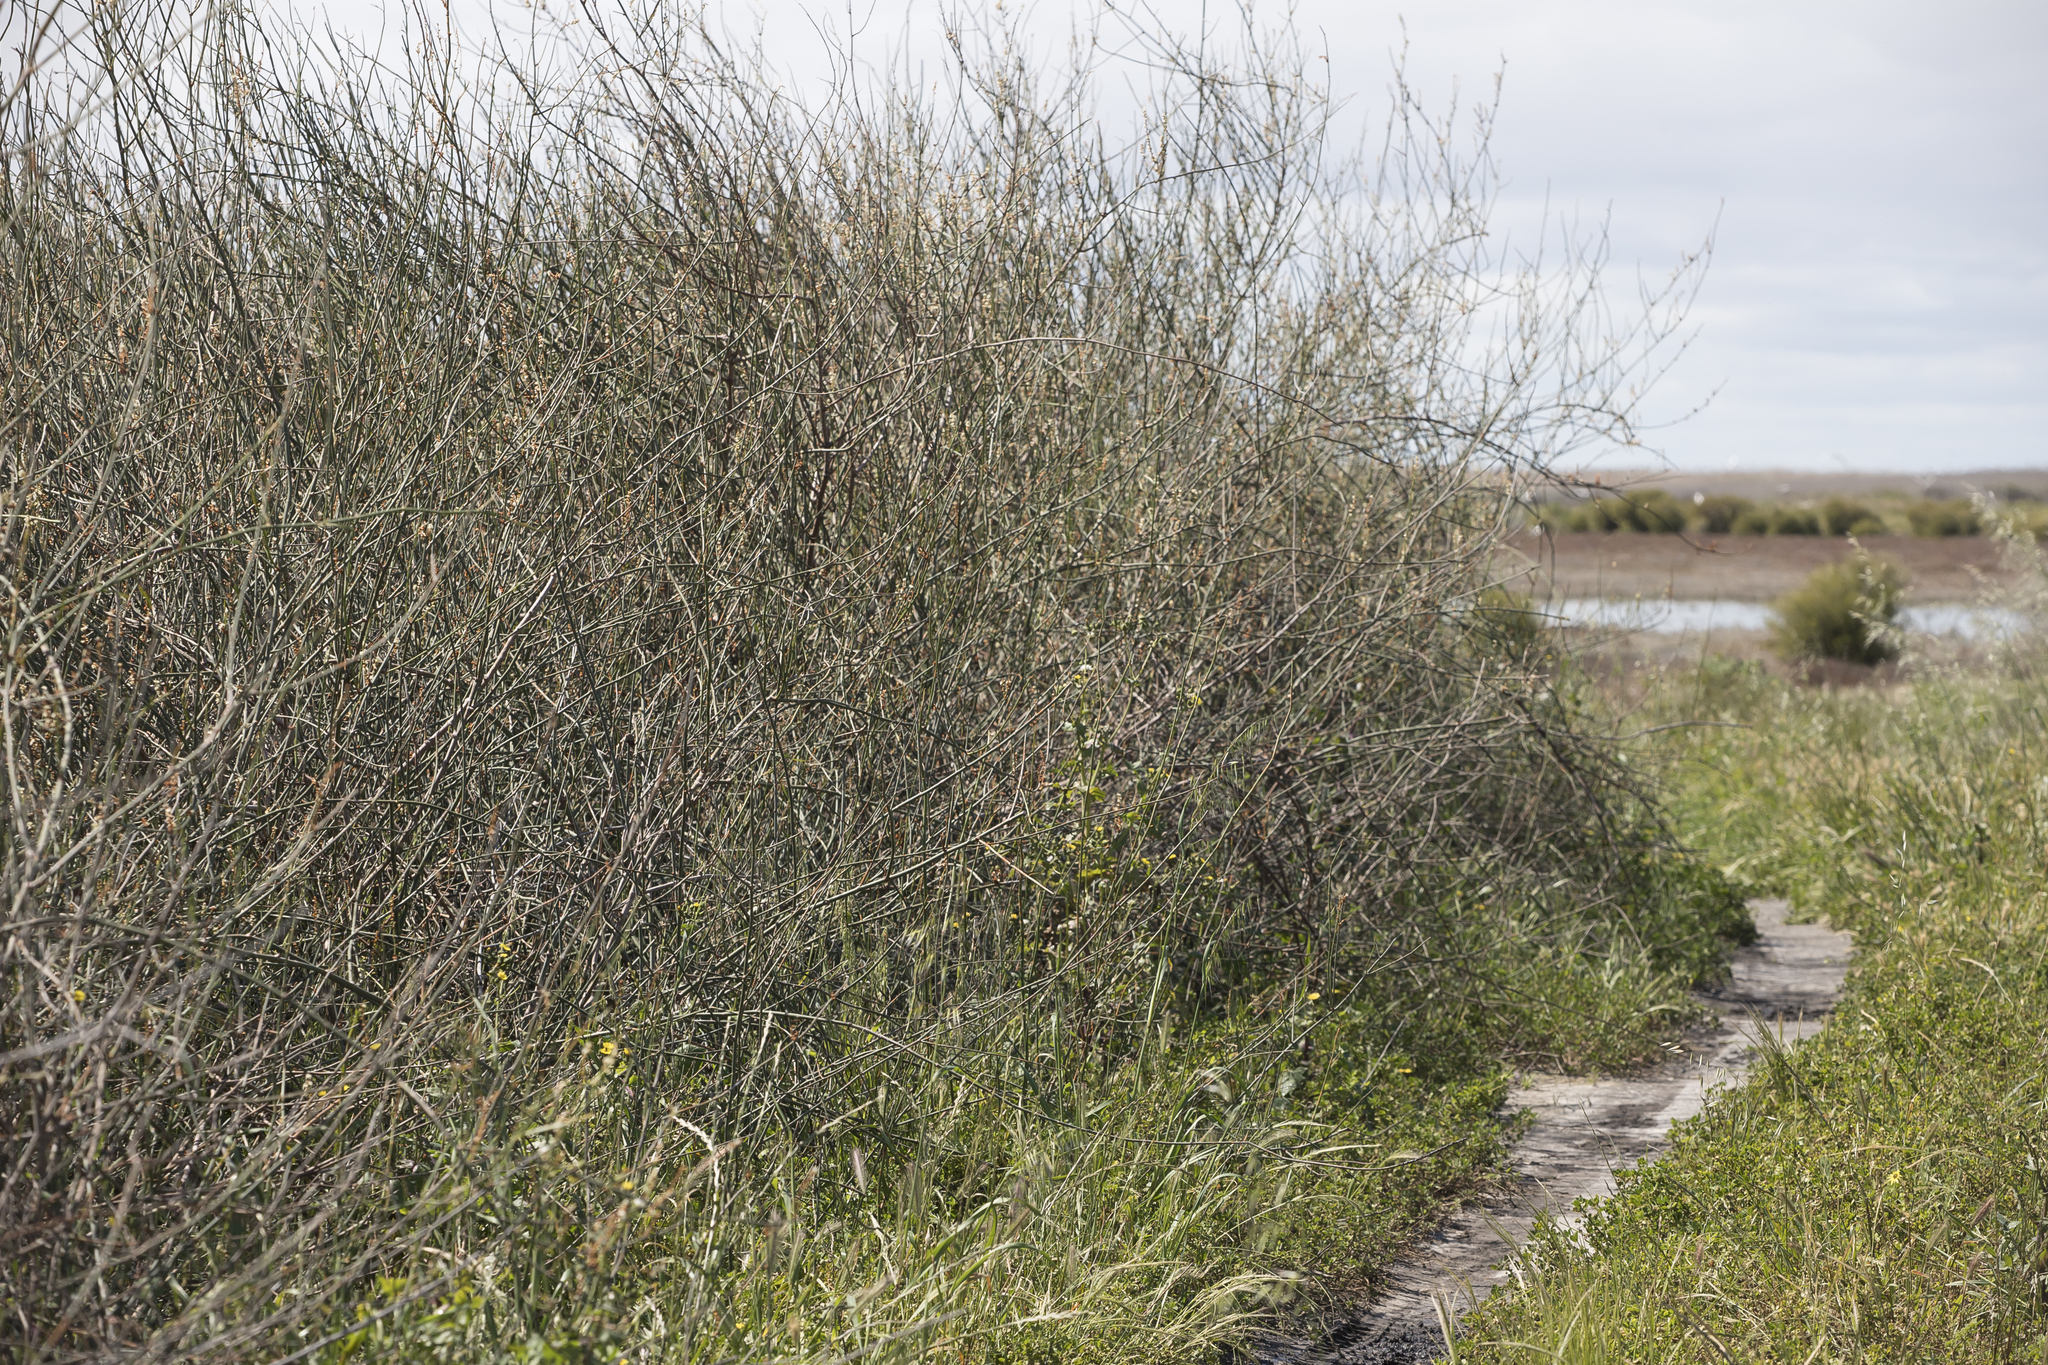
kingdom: Plantae
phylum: Tracheophyta
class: Magnoliopsida
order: Caryophyllales
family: Polygonaceae
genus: Duma
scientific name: Duma florulenta
